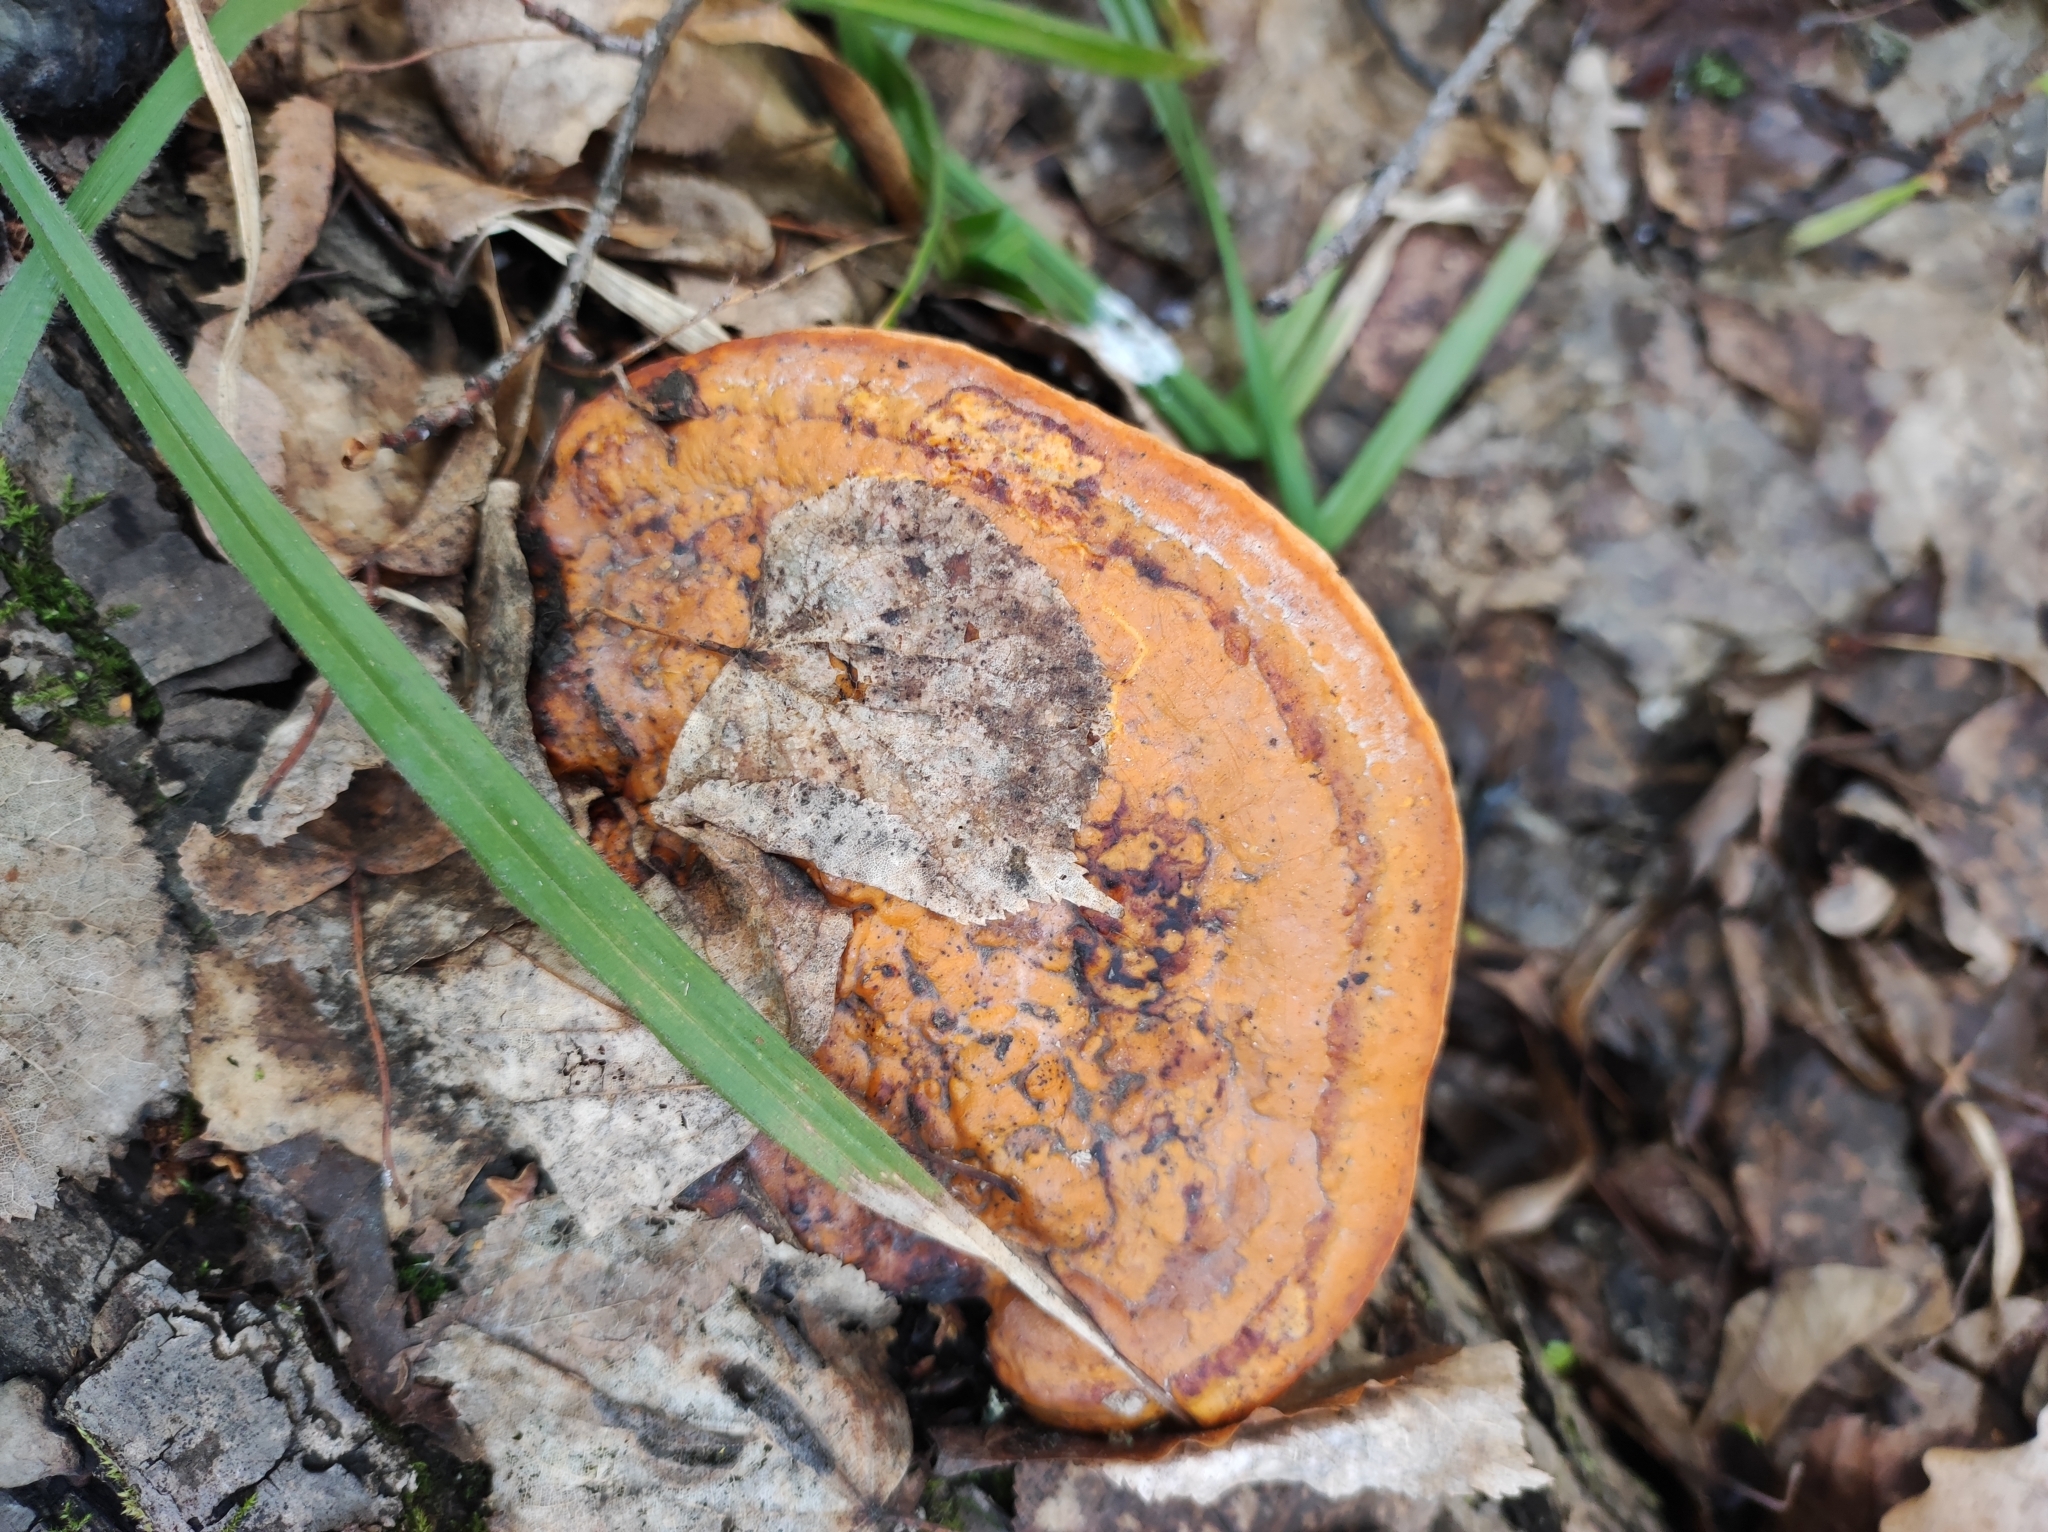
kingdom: Fungi
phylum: Basidiomycota
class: Agaricomycetes
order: Polyporales
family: Fomitopsidaceae
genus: Fomitopsis
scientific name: Fomitopsis pinicola
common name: Red-belted bracket
